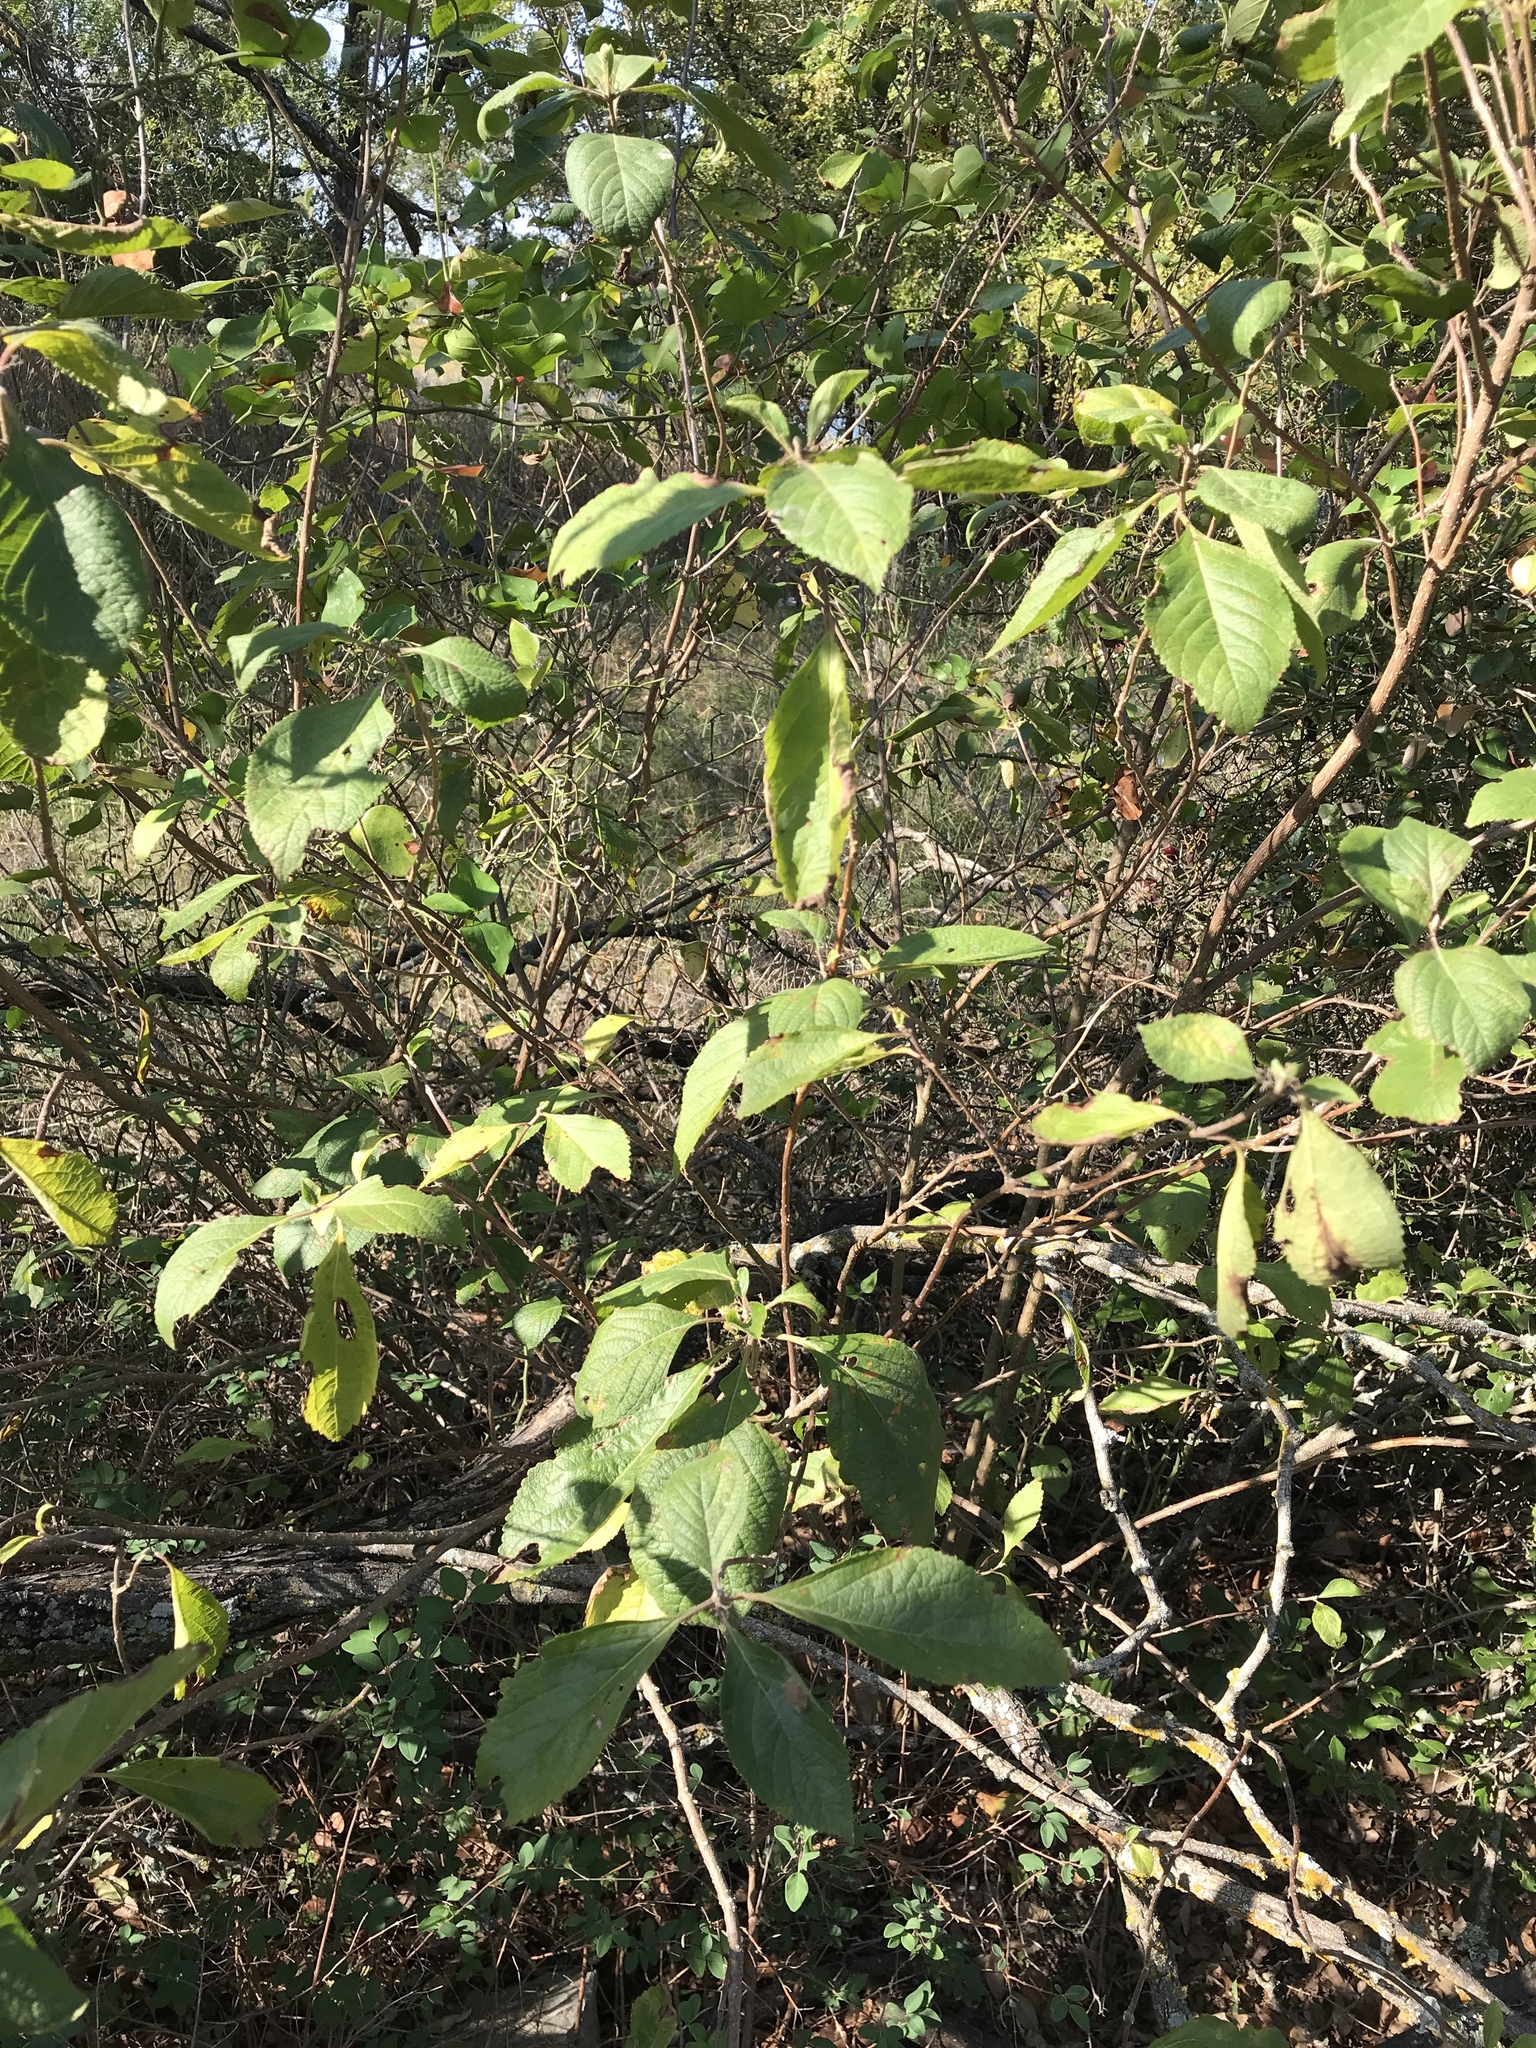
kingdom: Plantae
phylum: Tracheophyta
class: Magnoliopsida
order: Lamiales
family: Lamiaceae
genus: Callicarpa
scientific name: Callicarpa americana
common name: American beautyberry
